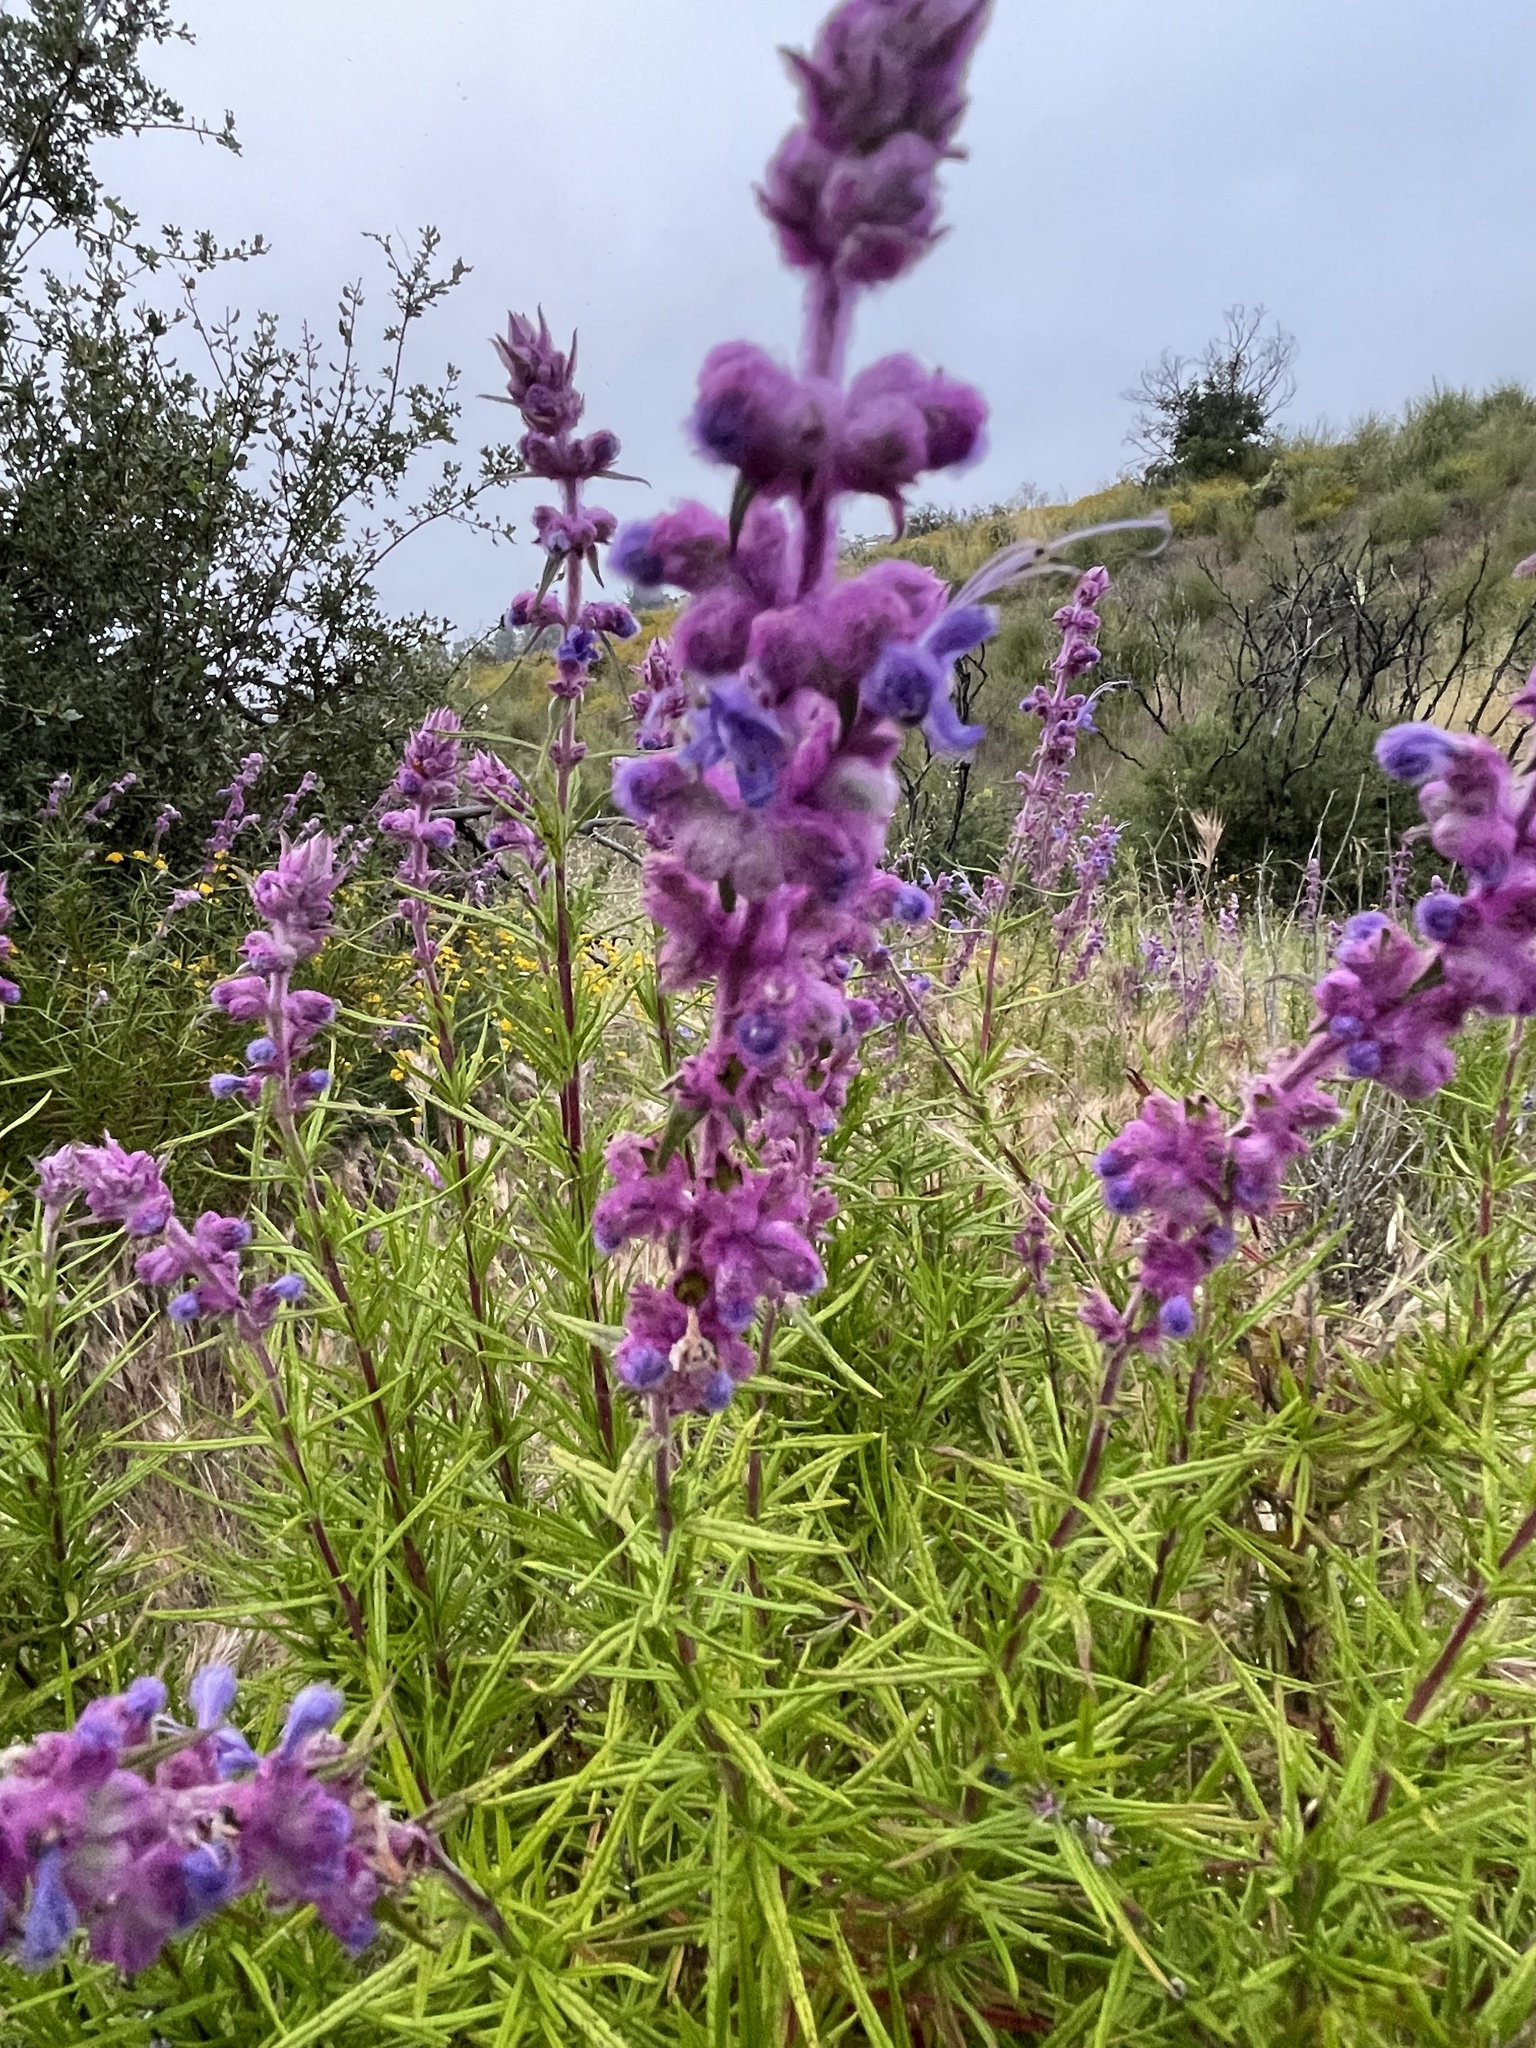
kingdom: Plantae
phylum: Tracheophyta
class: Magnoliopsida
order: Lamiales
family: Lamiaceae
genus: Trichostema
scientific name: Trichostema lanatum
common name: Woolly bluecurls
